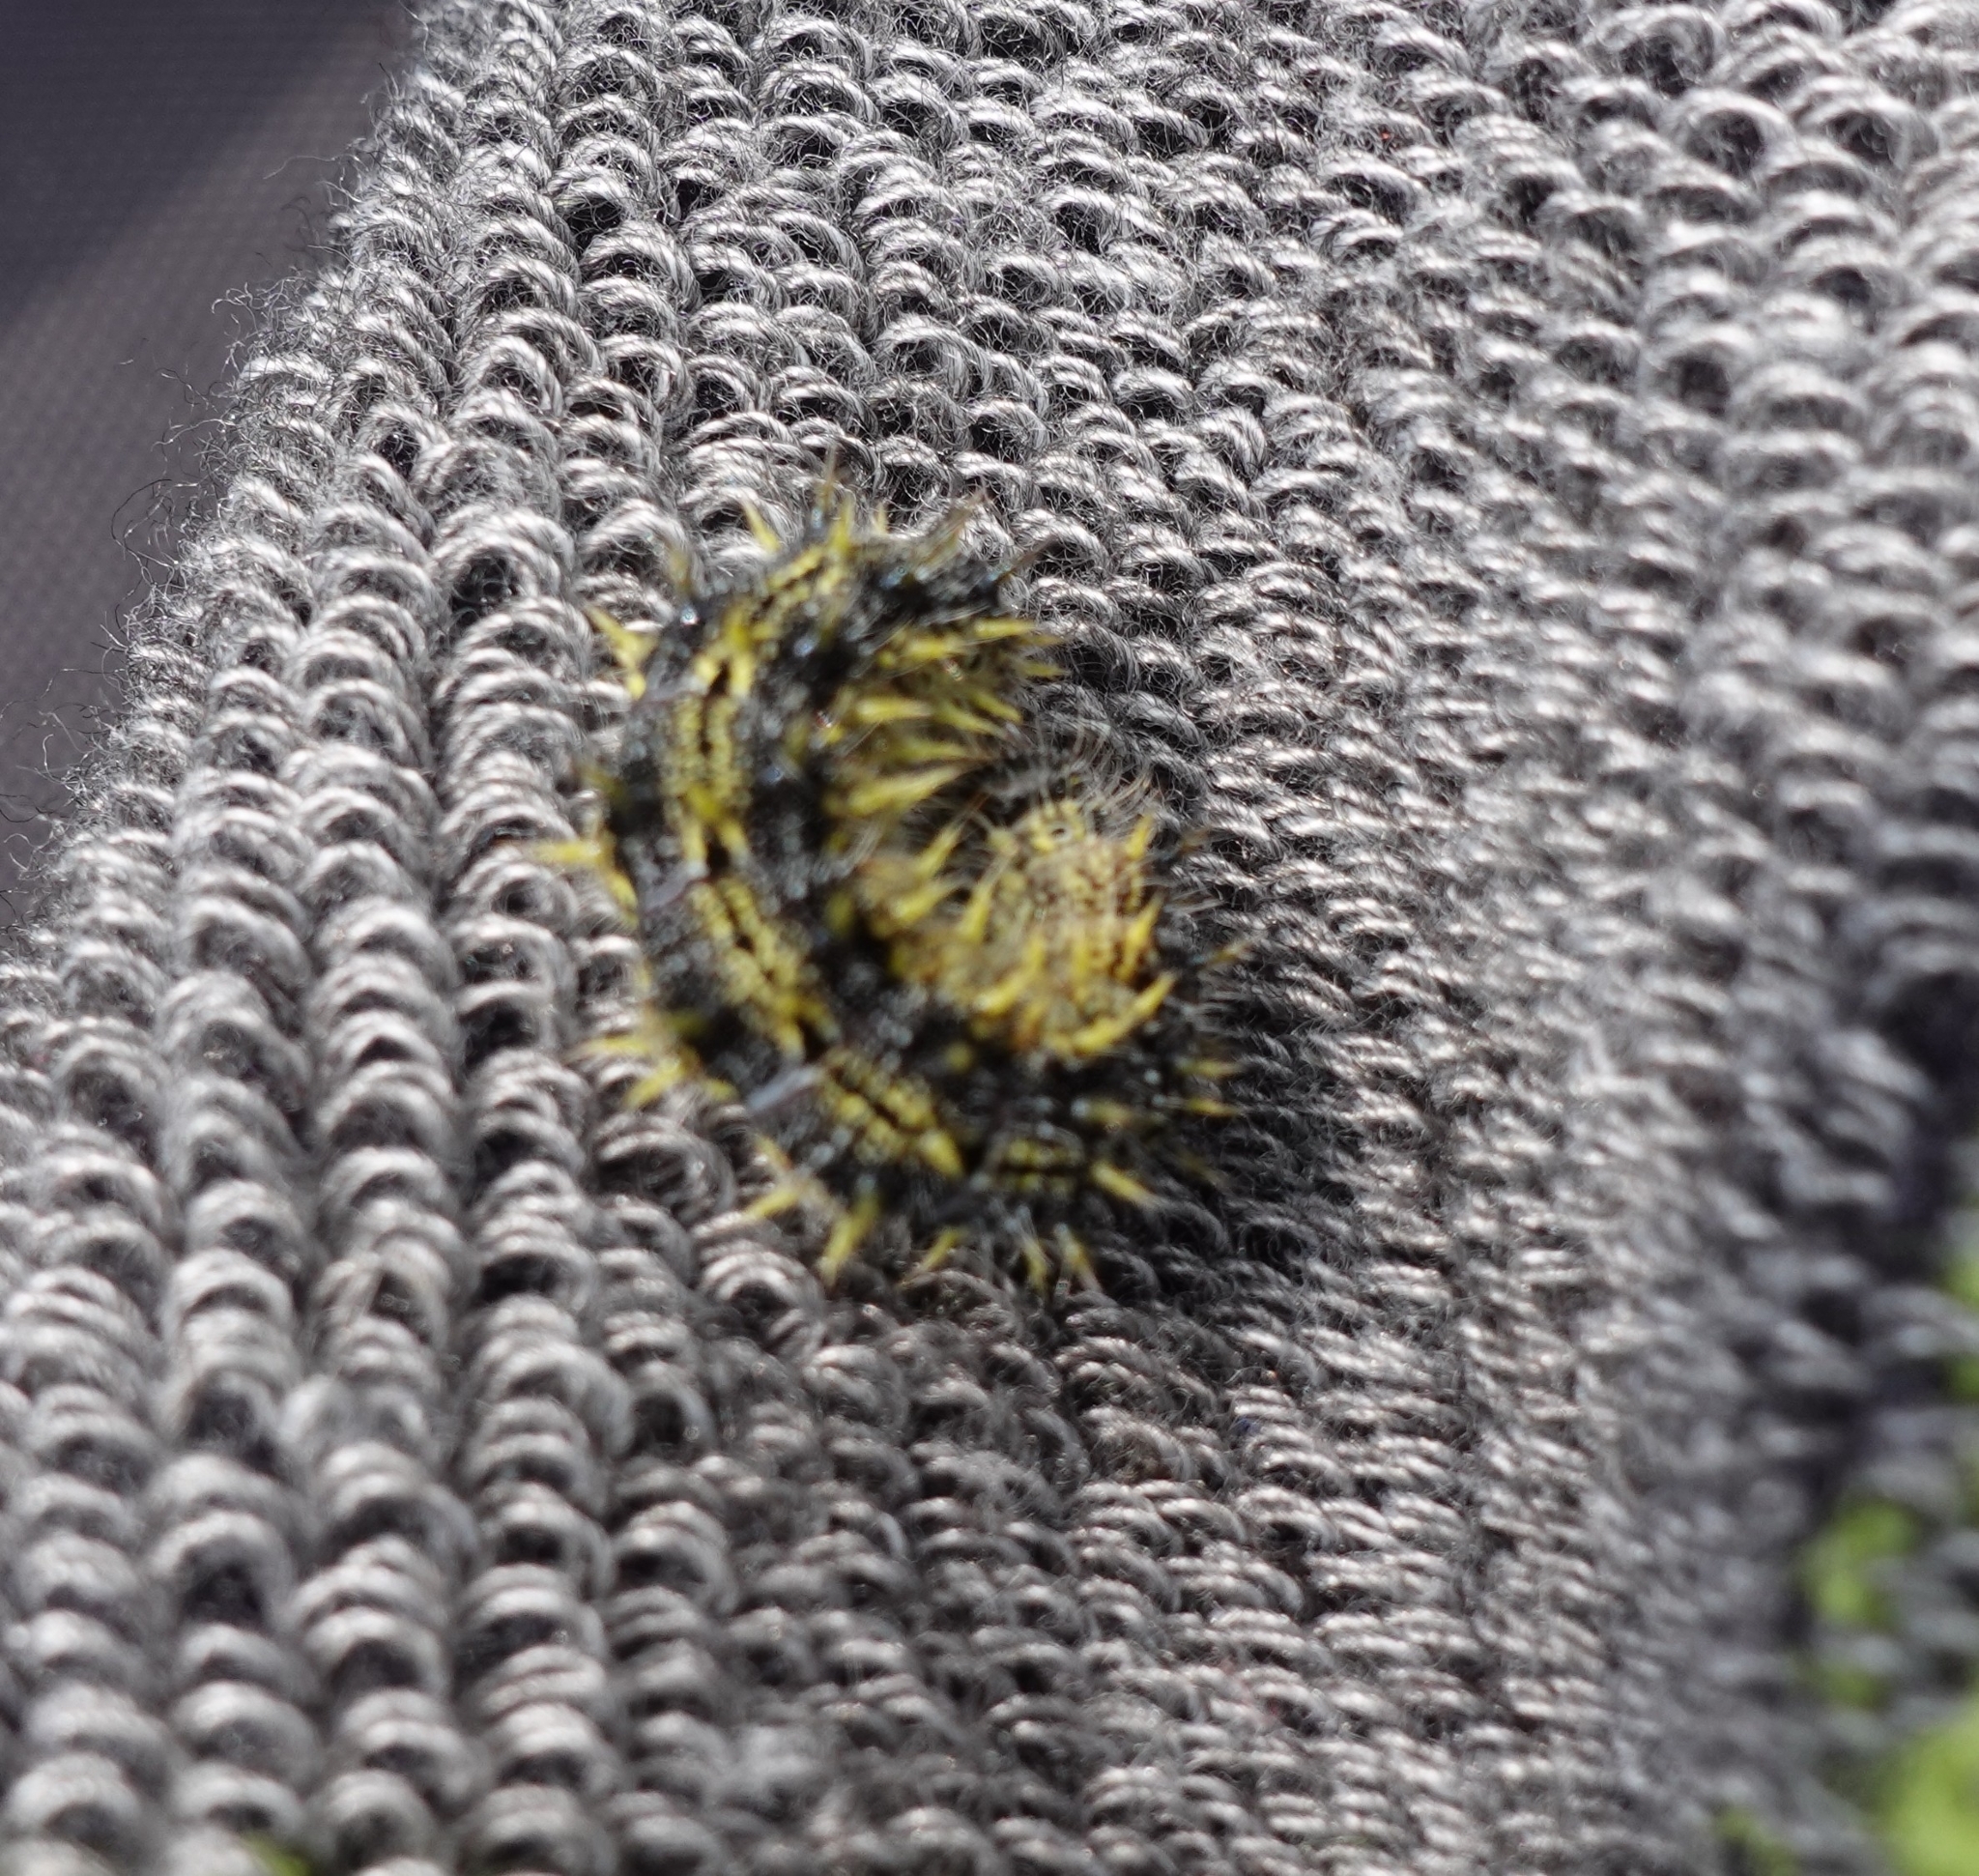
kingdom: Animalia
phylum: Arthropoda
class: Insecta
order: Lepidoptera
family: Nymphalidae
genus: Aglais
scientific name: Aglais urticae
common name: Small tortoiseshell
